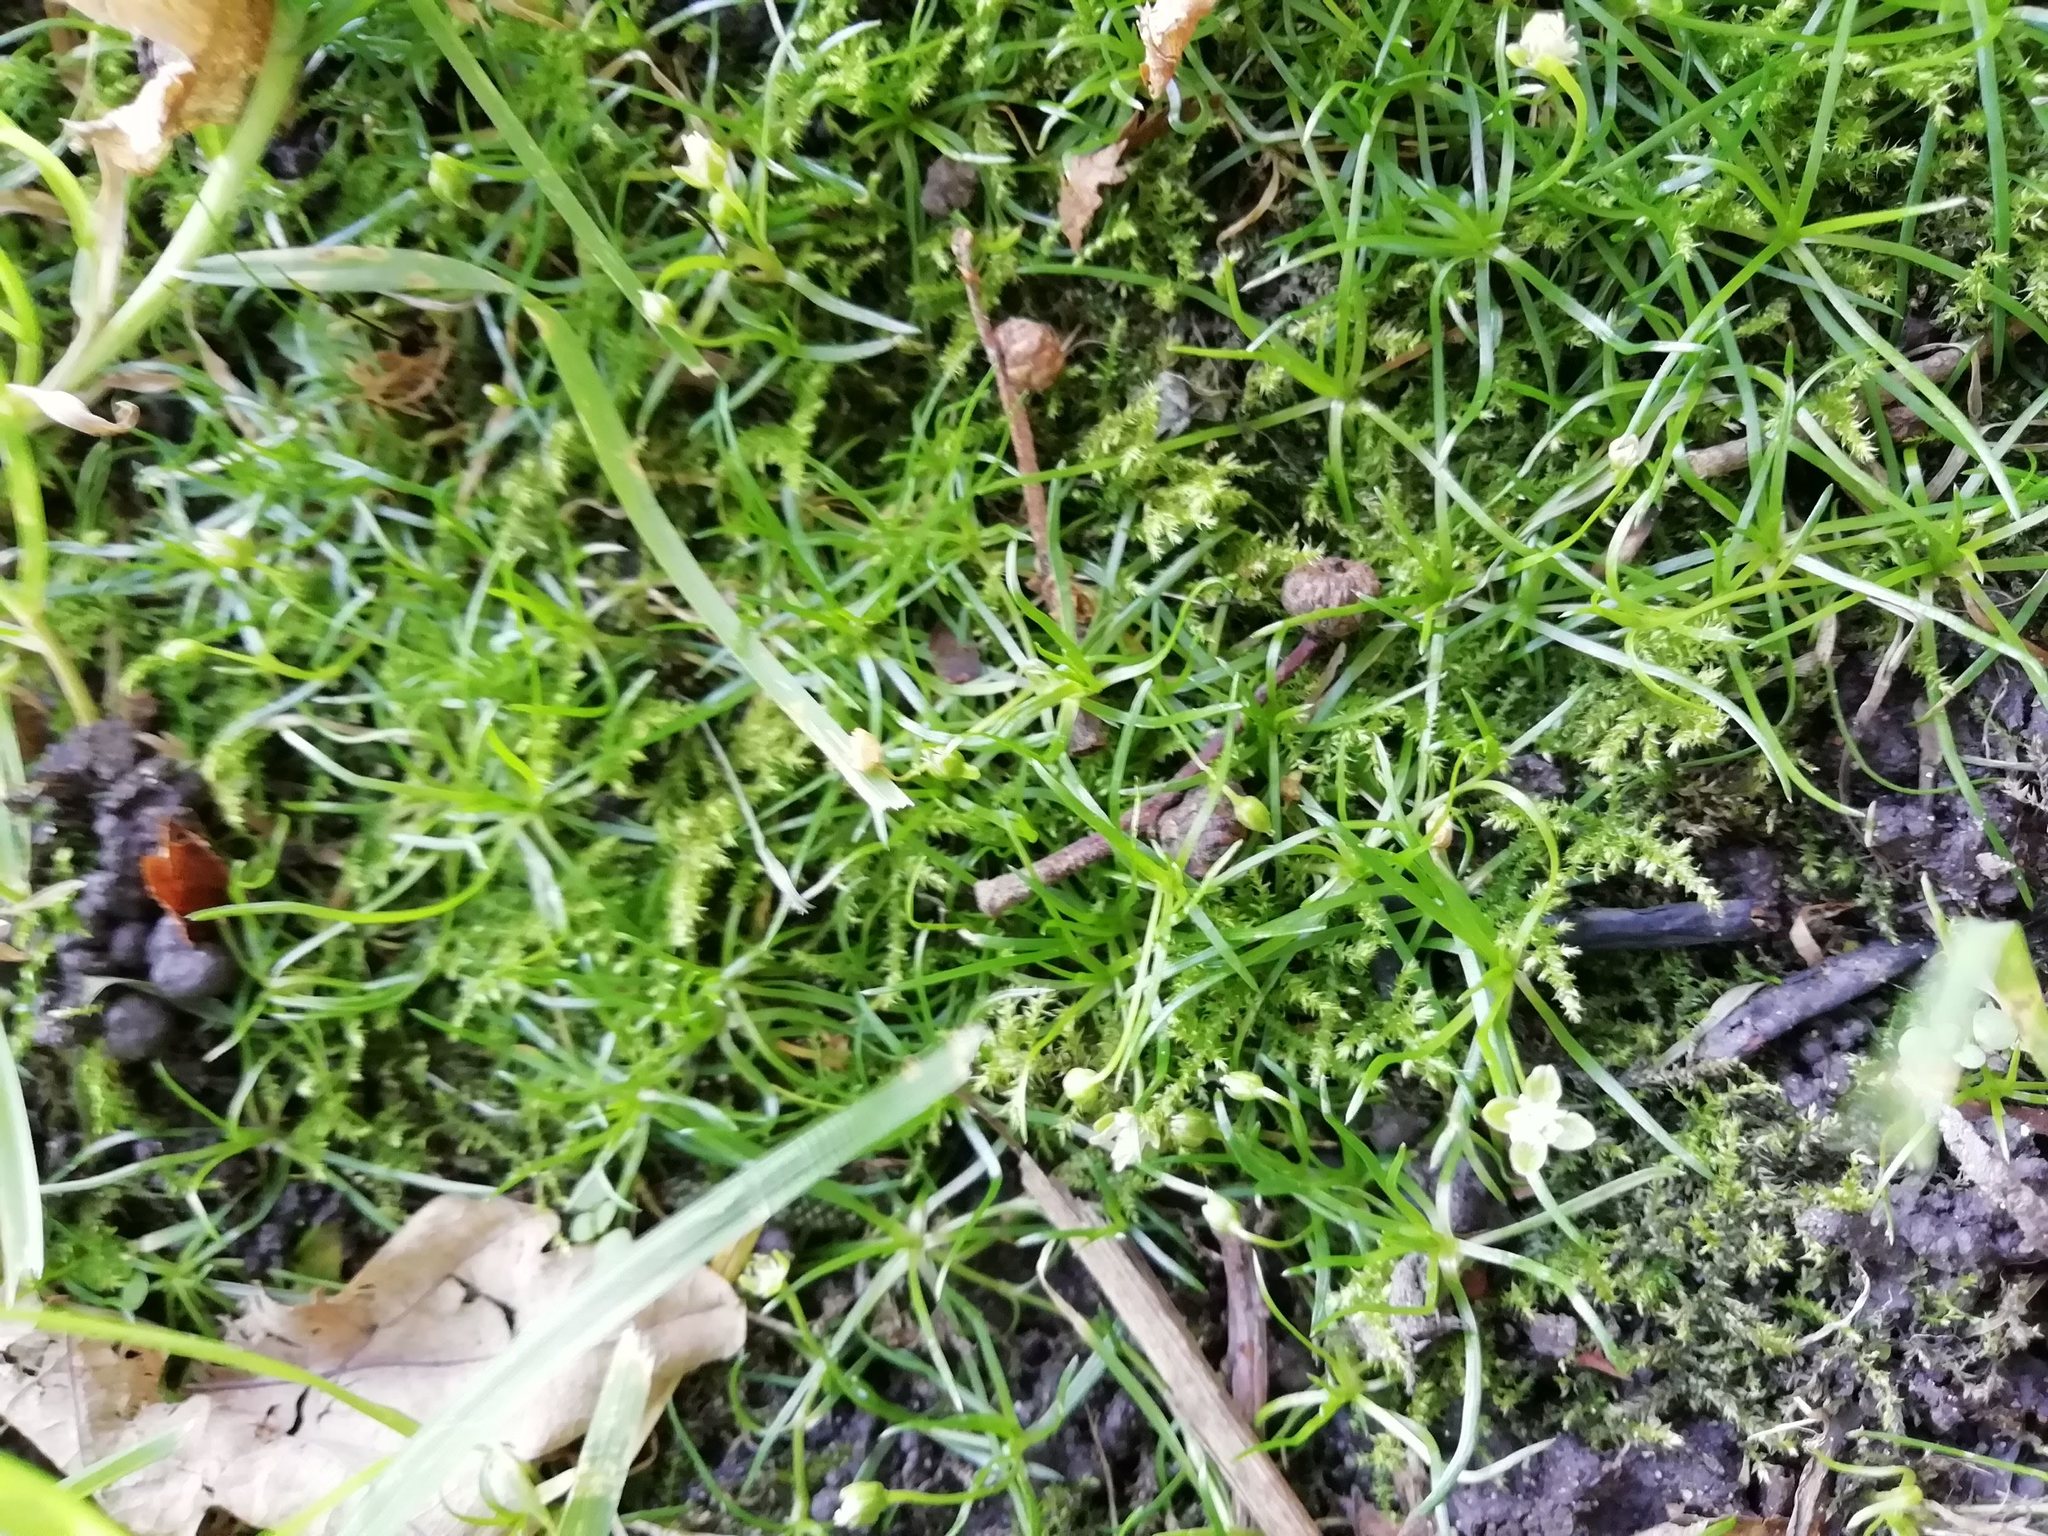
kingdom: Plantae
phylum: Tracheophyta
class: Magnoliopsida
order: Caryophyllales
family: Caryophyllaceae
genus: Sagina
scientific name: Sagina procumbens
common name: Procumbent pearlwort
